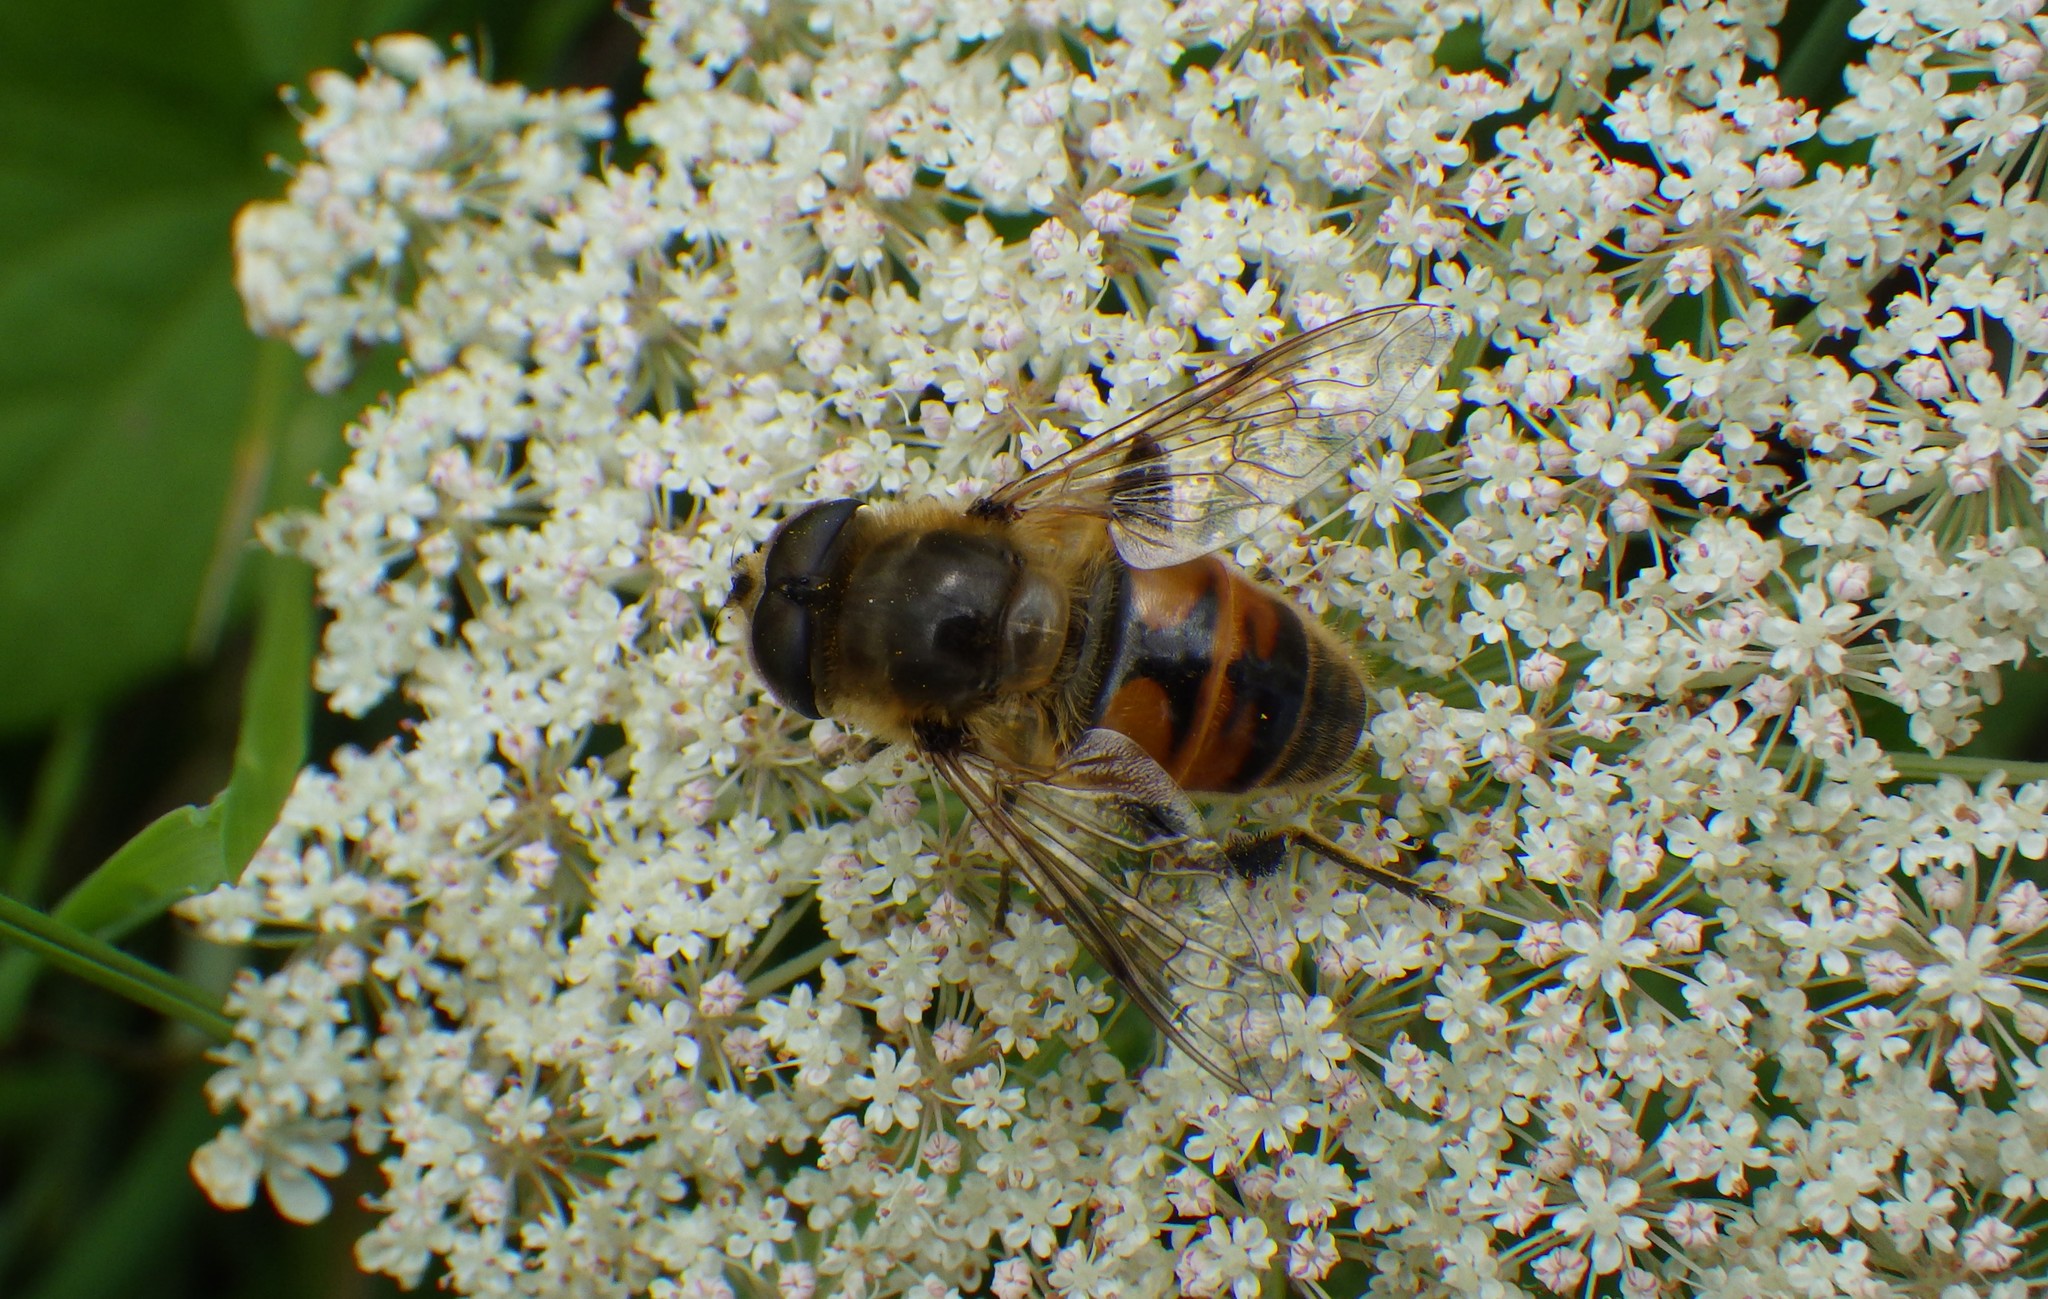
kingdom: Animalia
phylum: Arthropoda
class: Insecta
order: Diptera
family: Syrphidae
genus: Eristalis
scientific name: Eristalis tenax
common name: Drone fly
